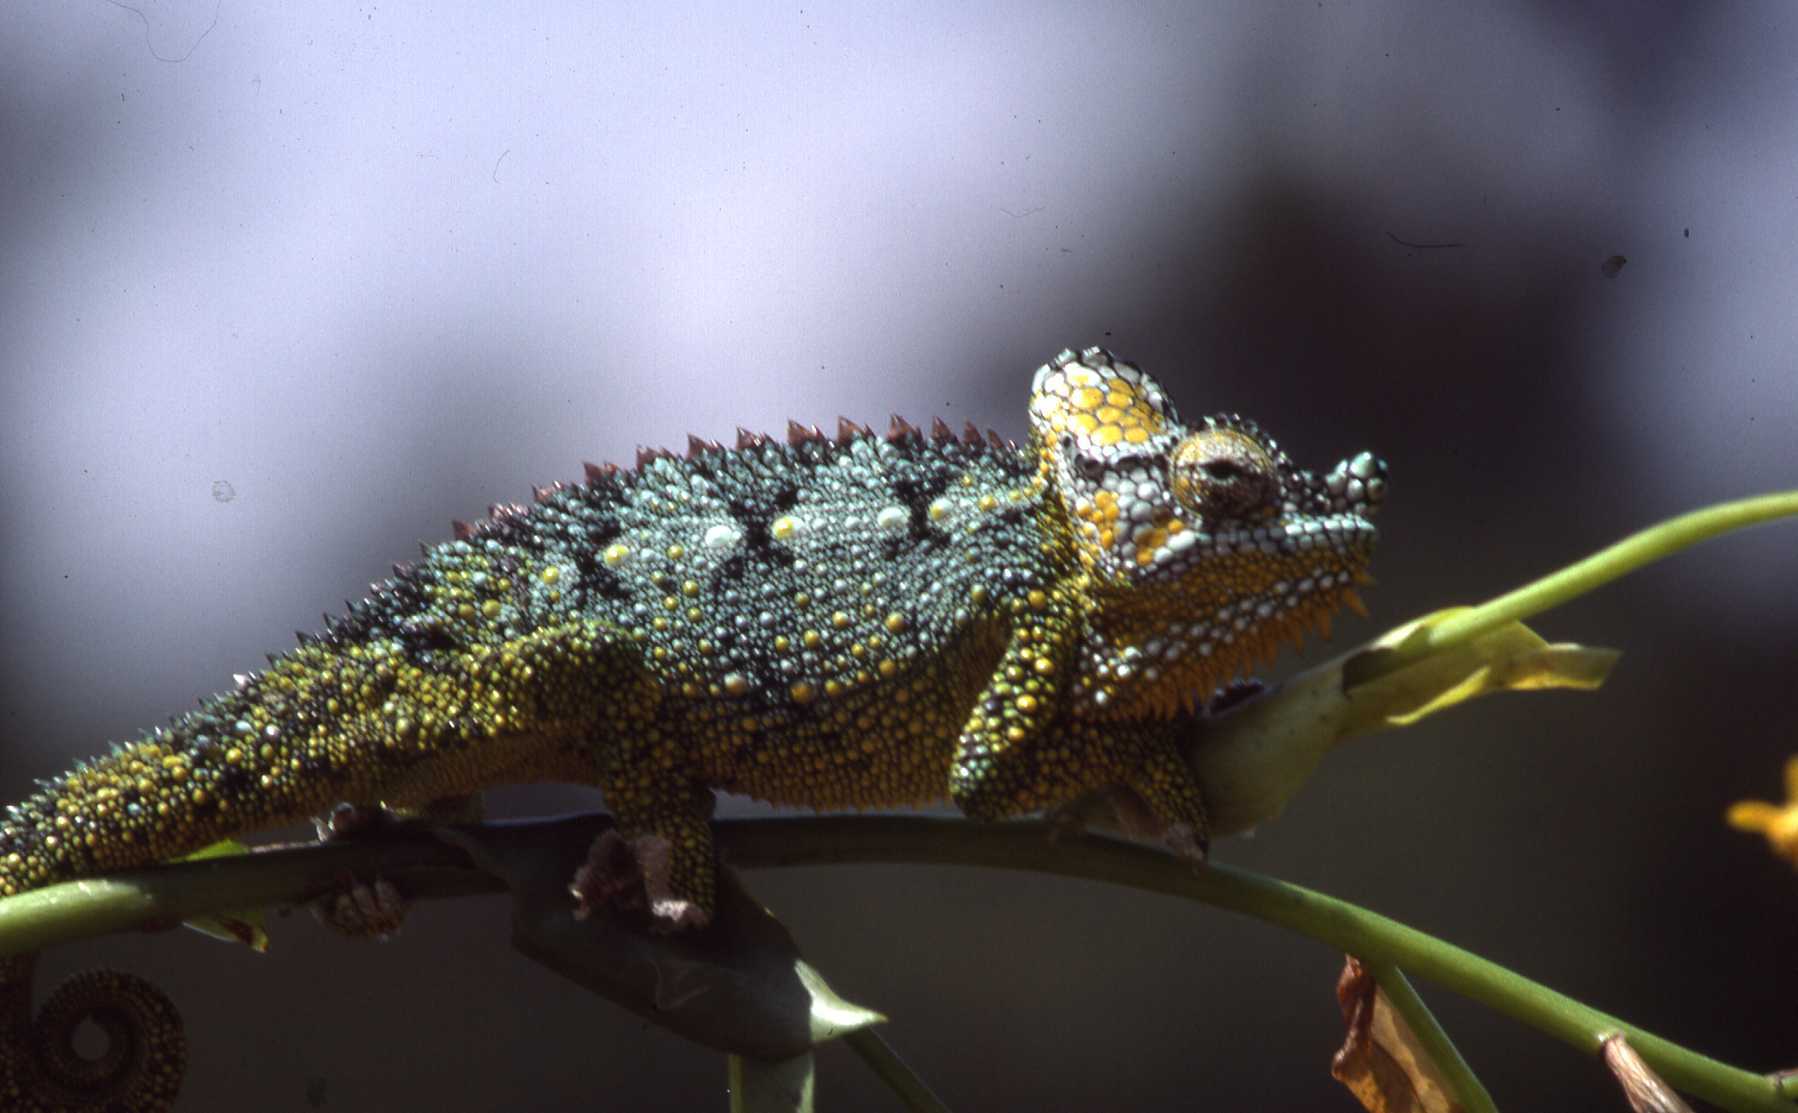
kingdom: Animalia
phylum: Chordata
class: Squamata
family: Chamaeleonidae
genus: Trioceros
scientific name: Trioceros hoehnelii
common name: High-casqued chameleon
